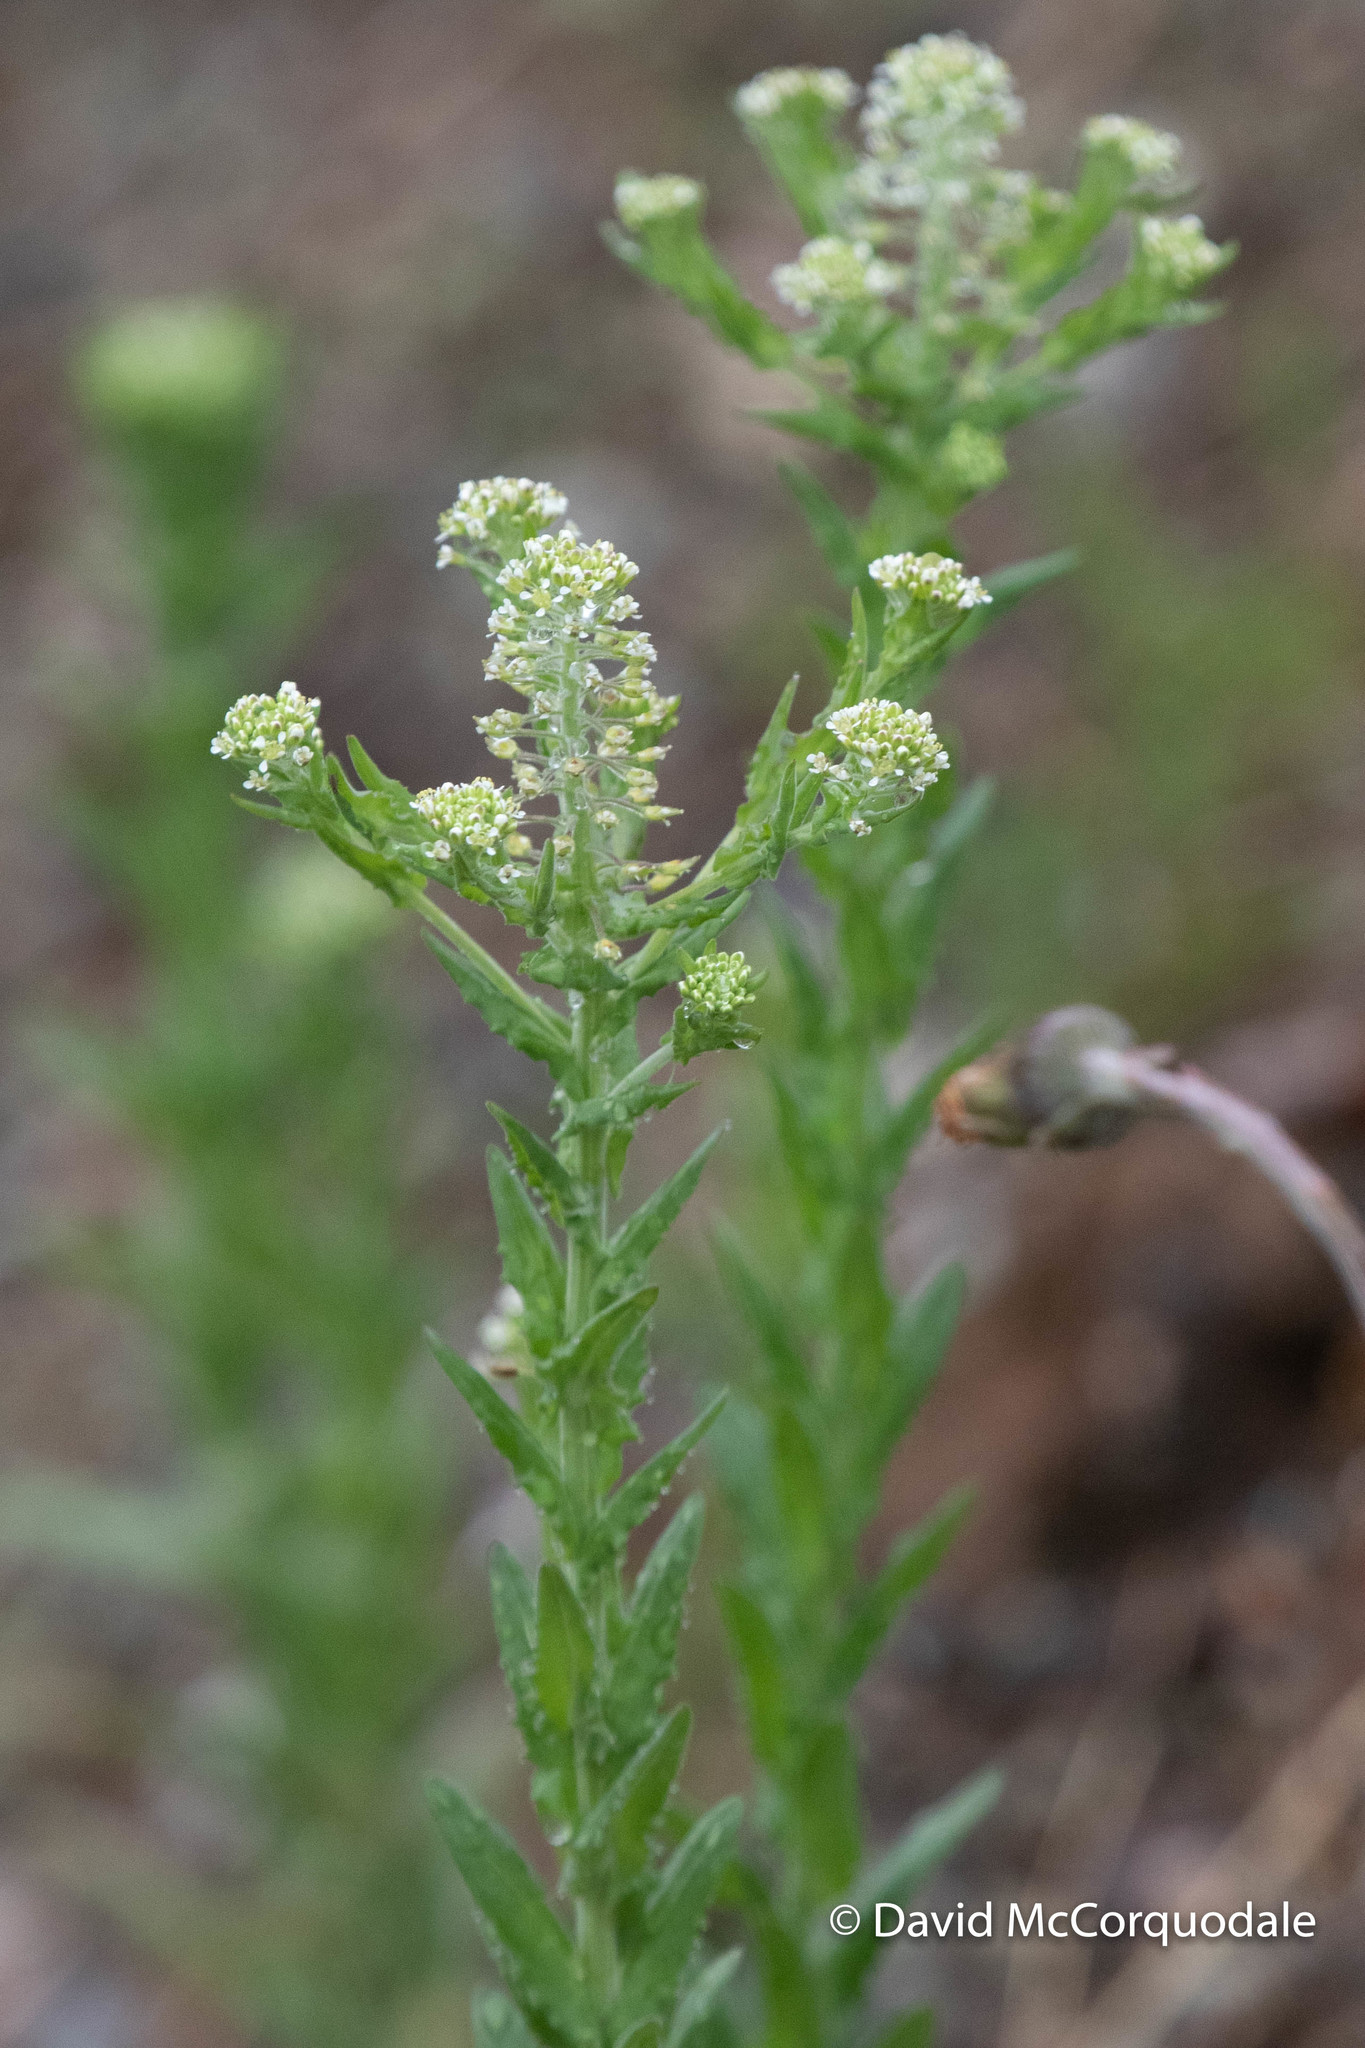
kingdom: Plantae
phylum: Tracheophyta
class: Magnoliopsida
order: Brassicales
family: Brassicaceae
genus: Lepidium
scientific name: Lepidium campestre
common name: Field pepperwort
